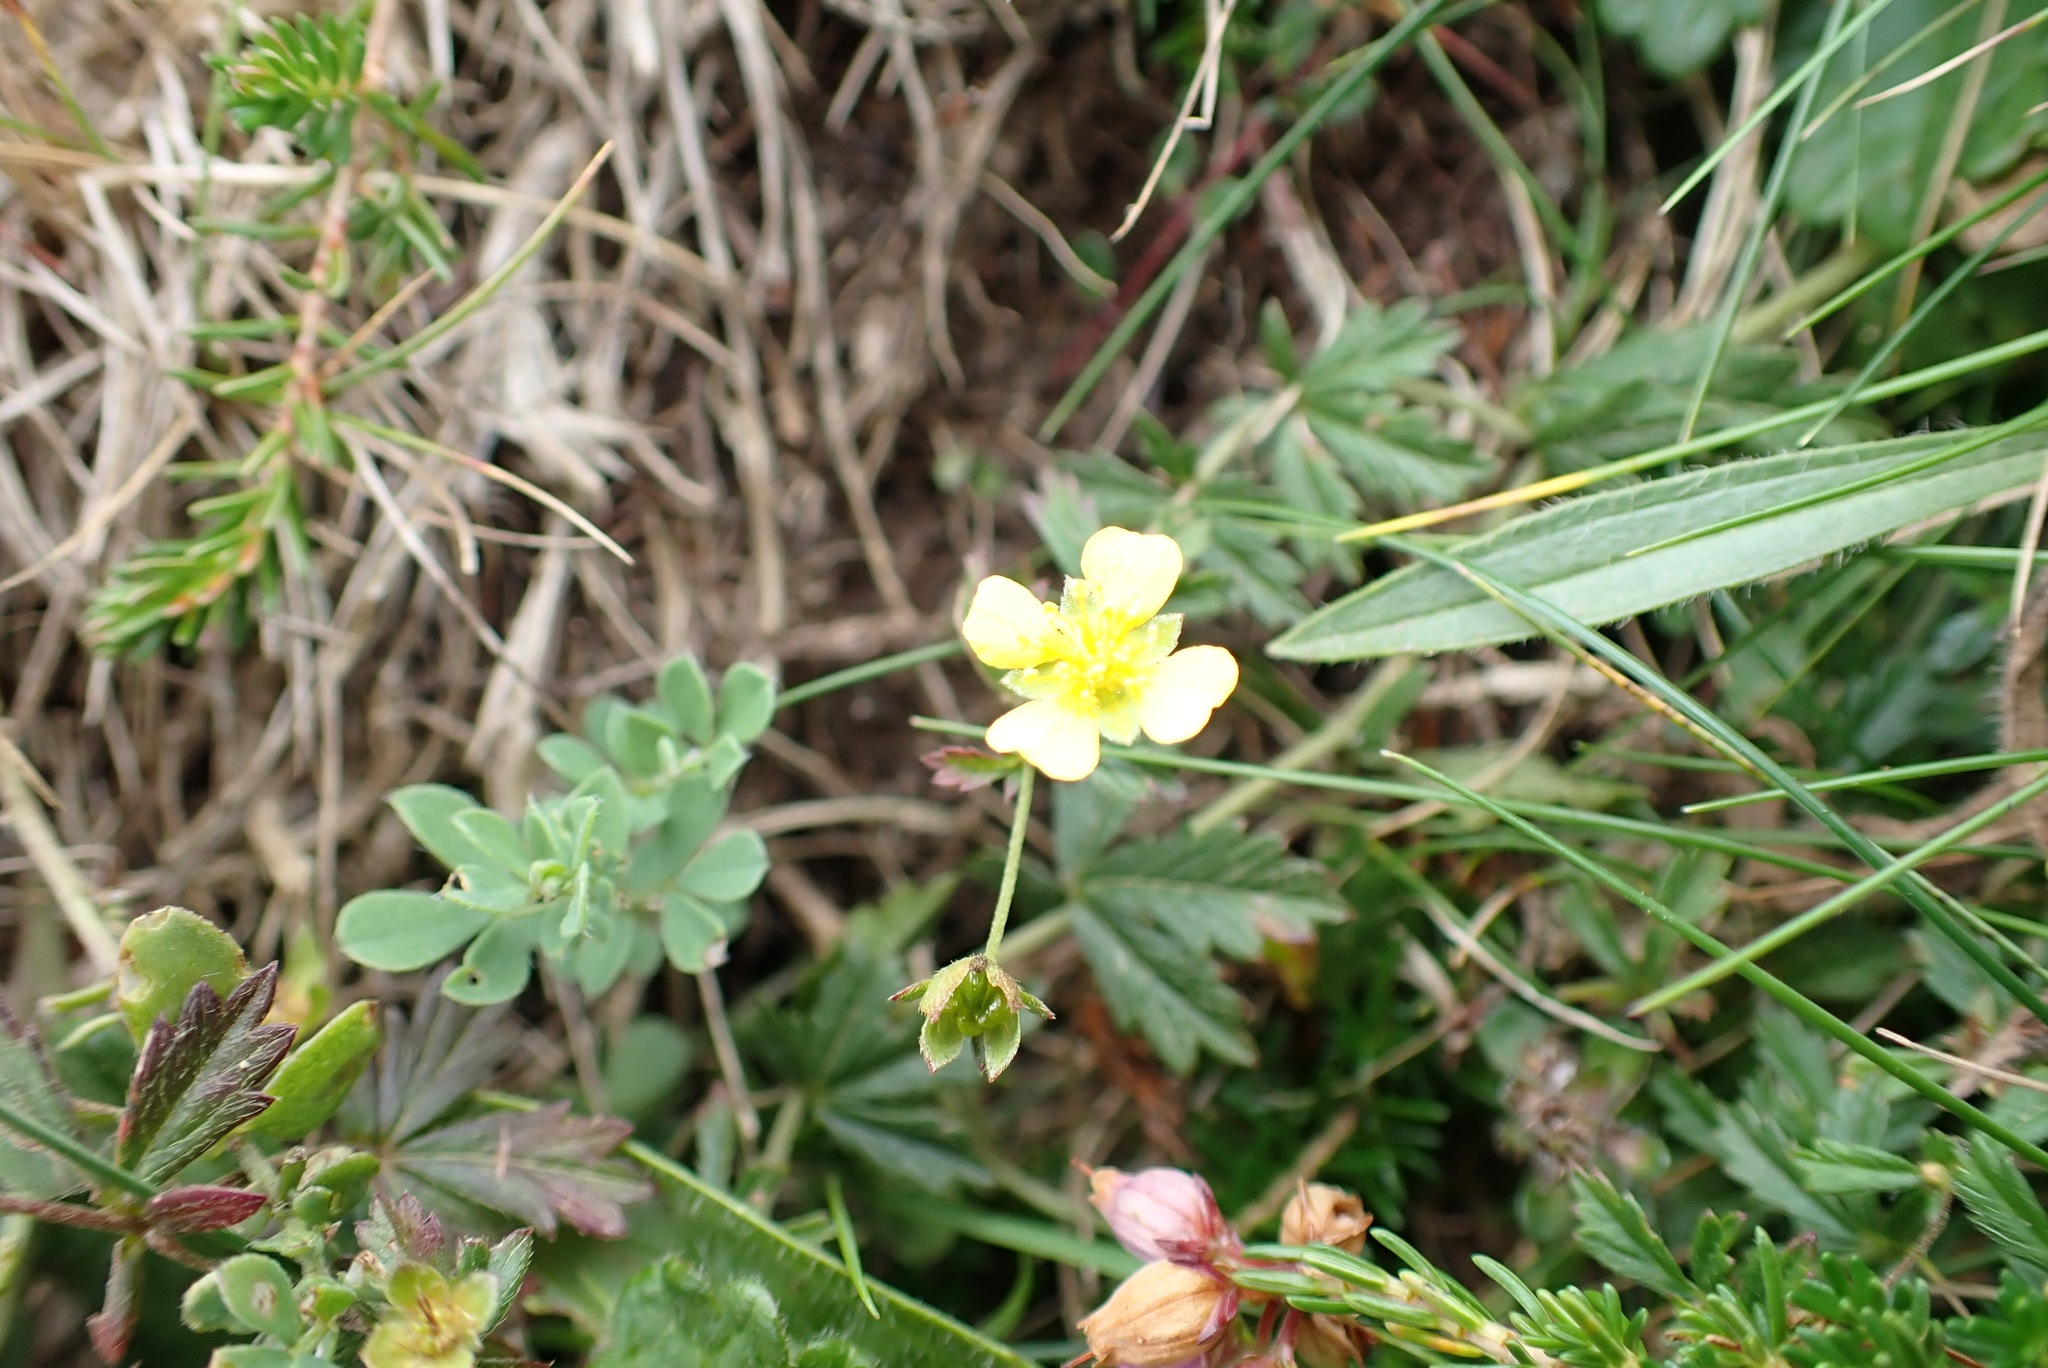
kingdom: Plantae
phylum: Tracheophyta
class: Magnoliopsida
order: Rosales
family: Rosaceae
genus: Potentilla
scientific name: Potentilla erecta
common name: Tormentil
